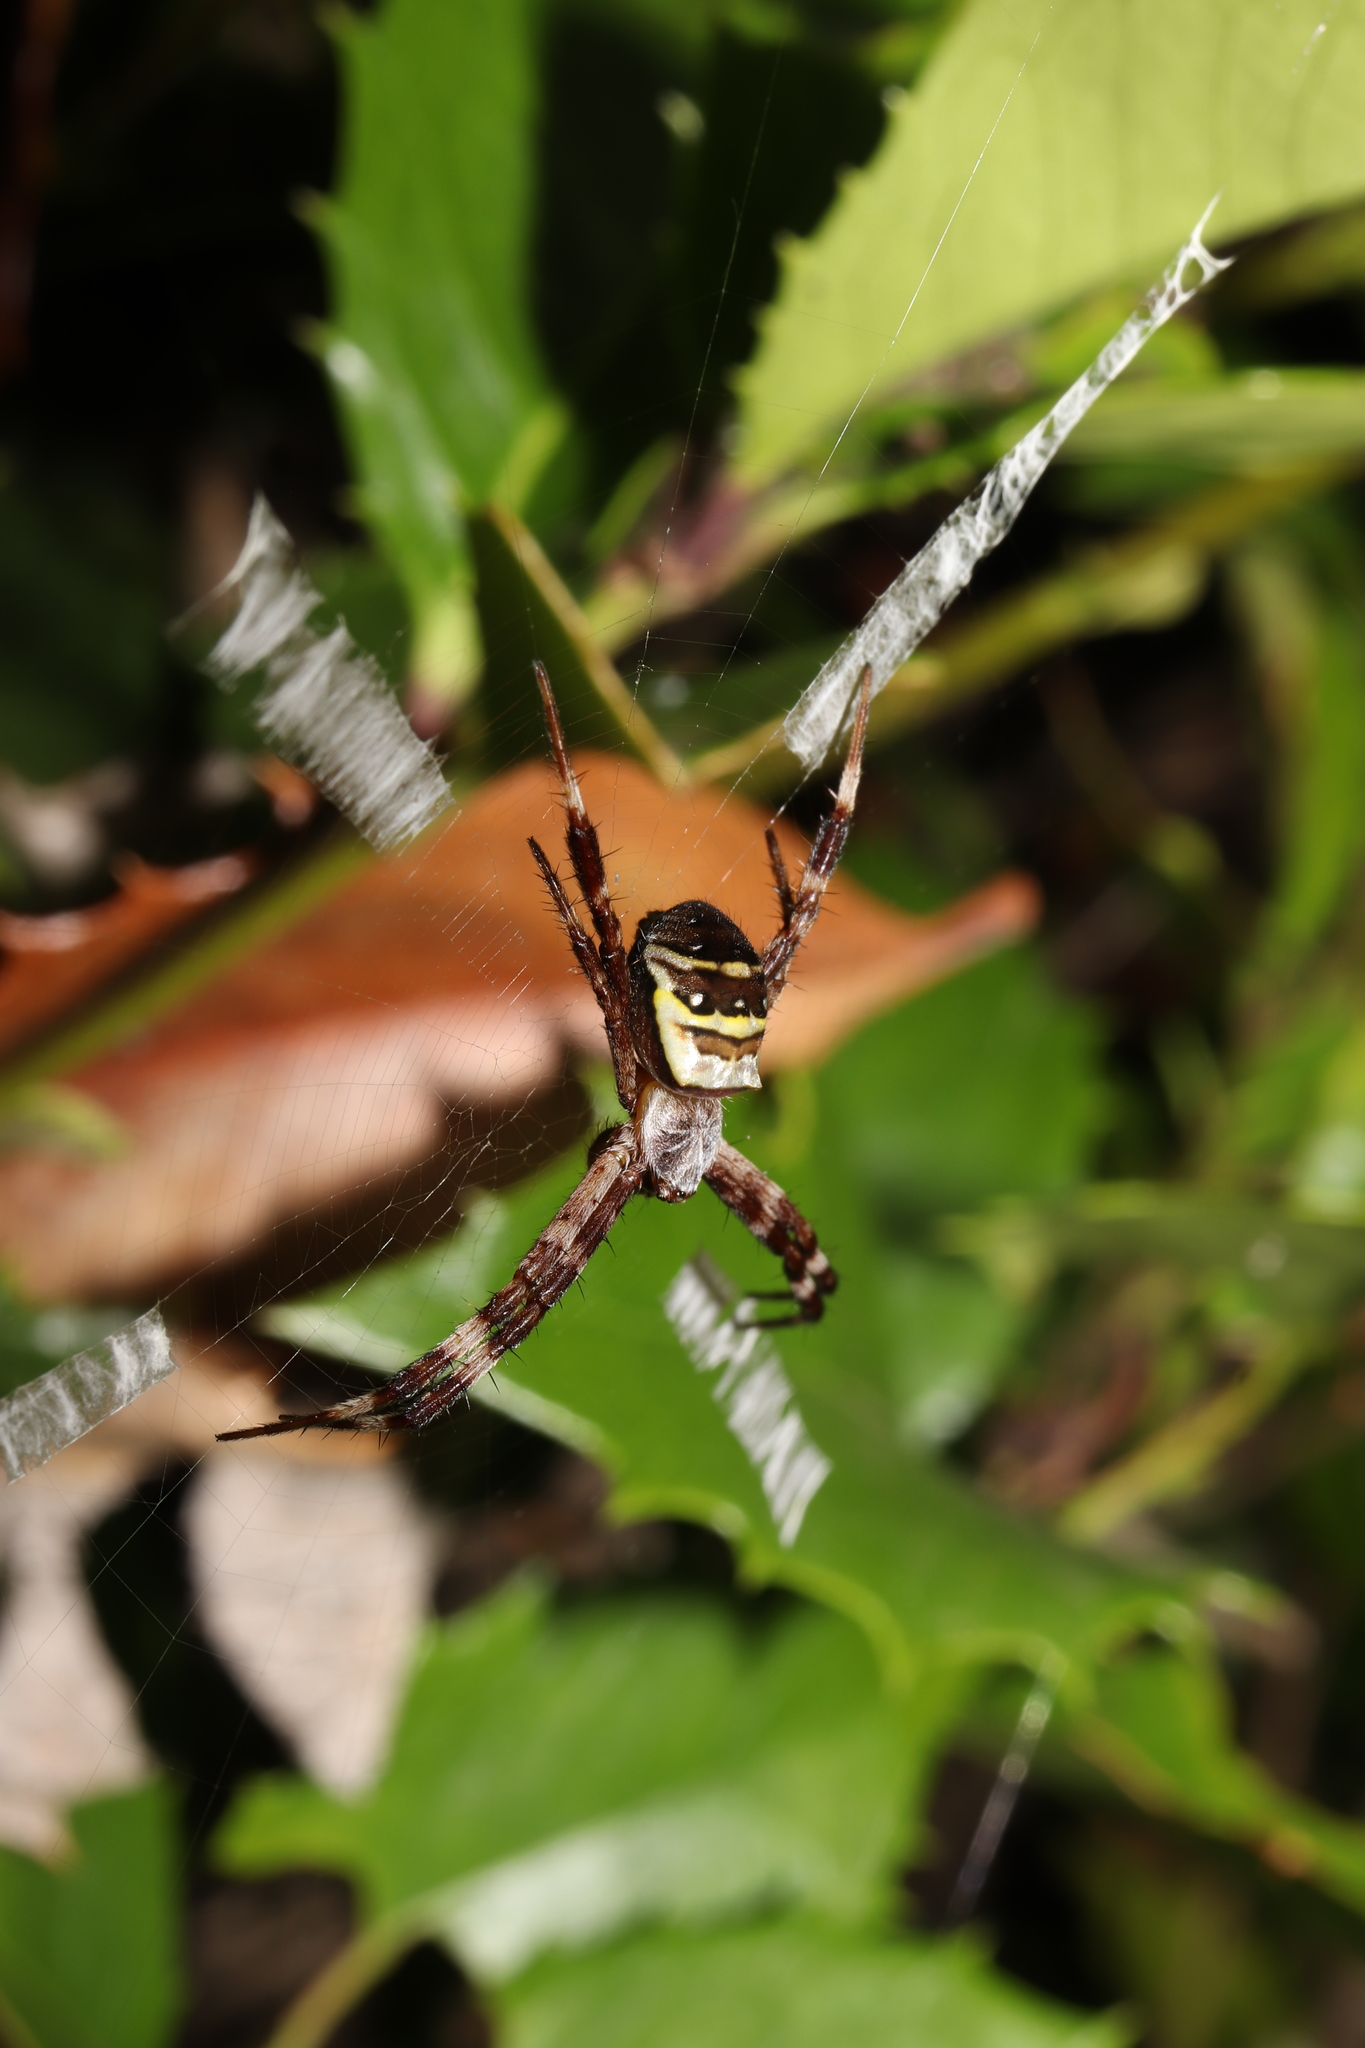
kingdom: Animalia
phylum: Arthropoda
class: Arachnida
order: Araneae
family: Araneidae
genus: Argiope
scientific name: Argiope amoena
